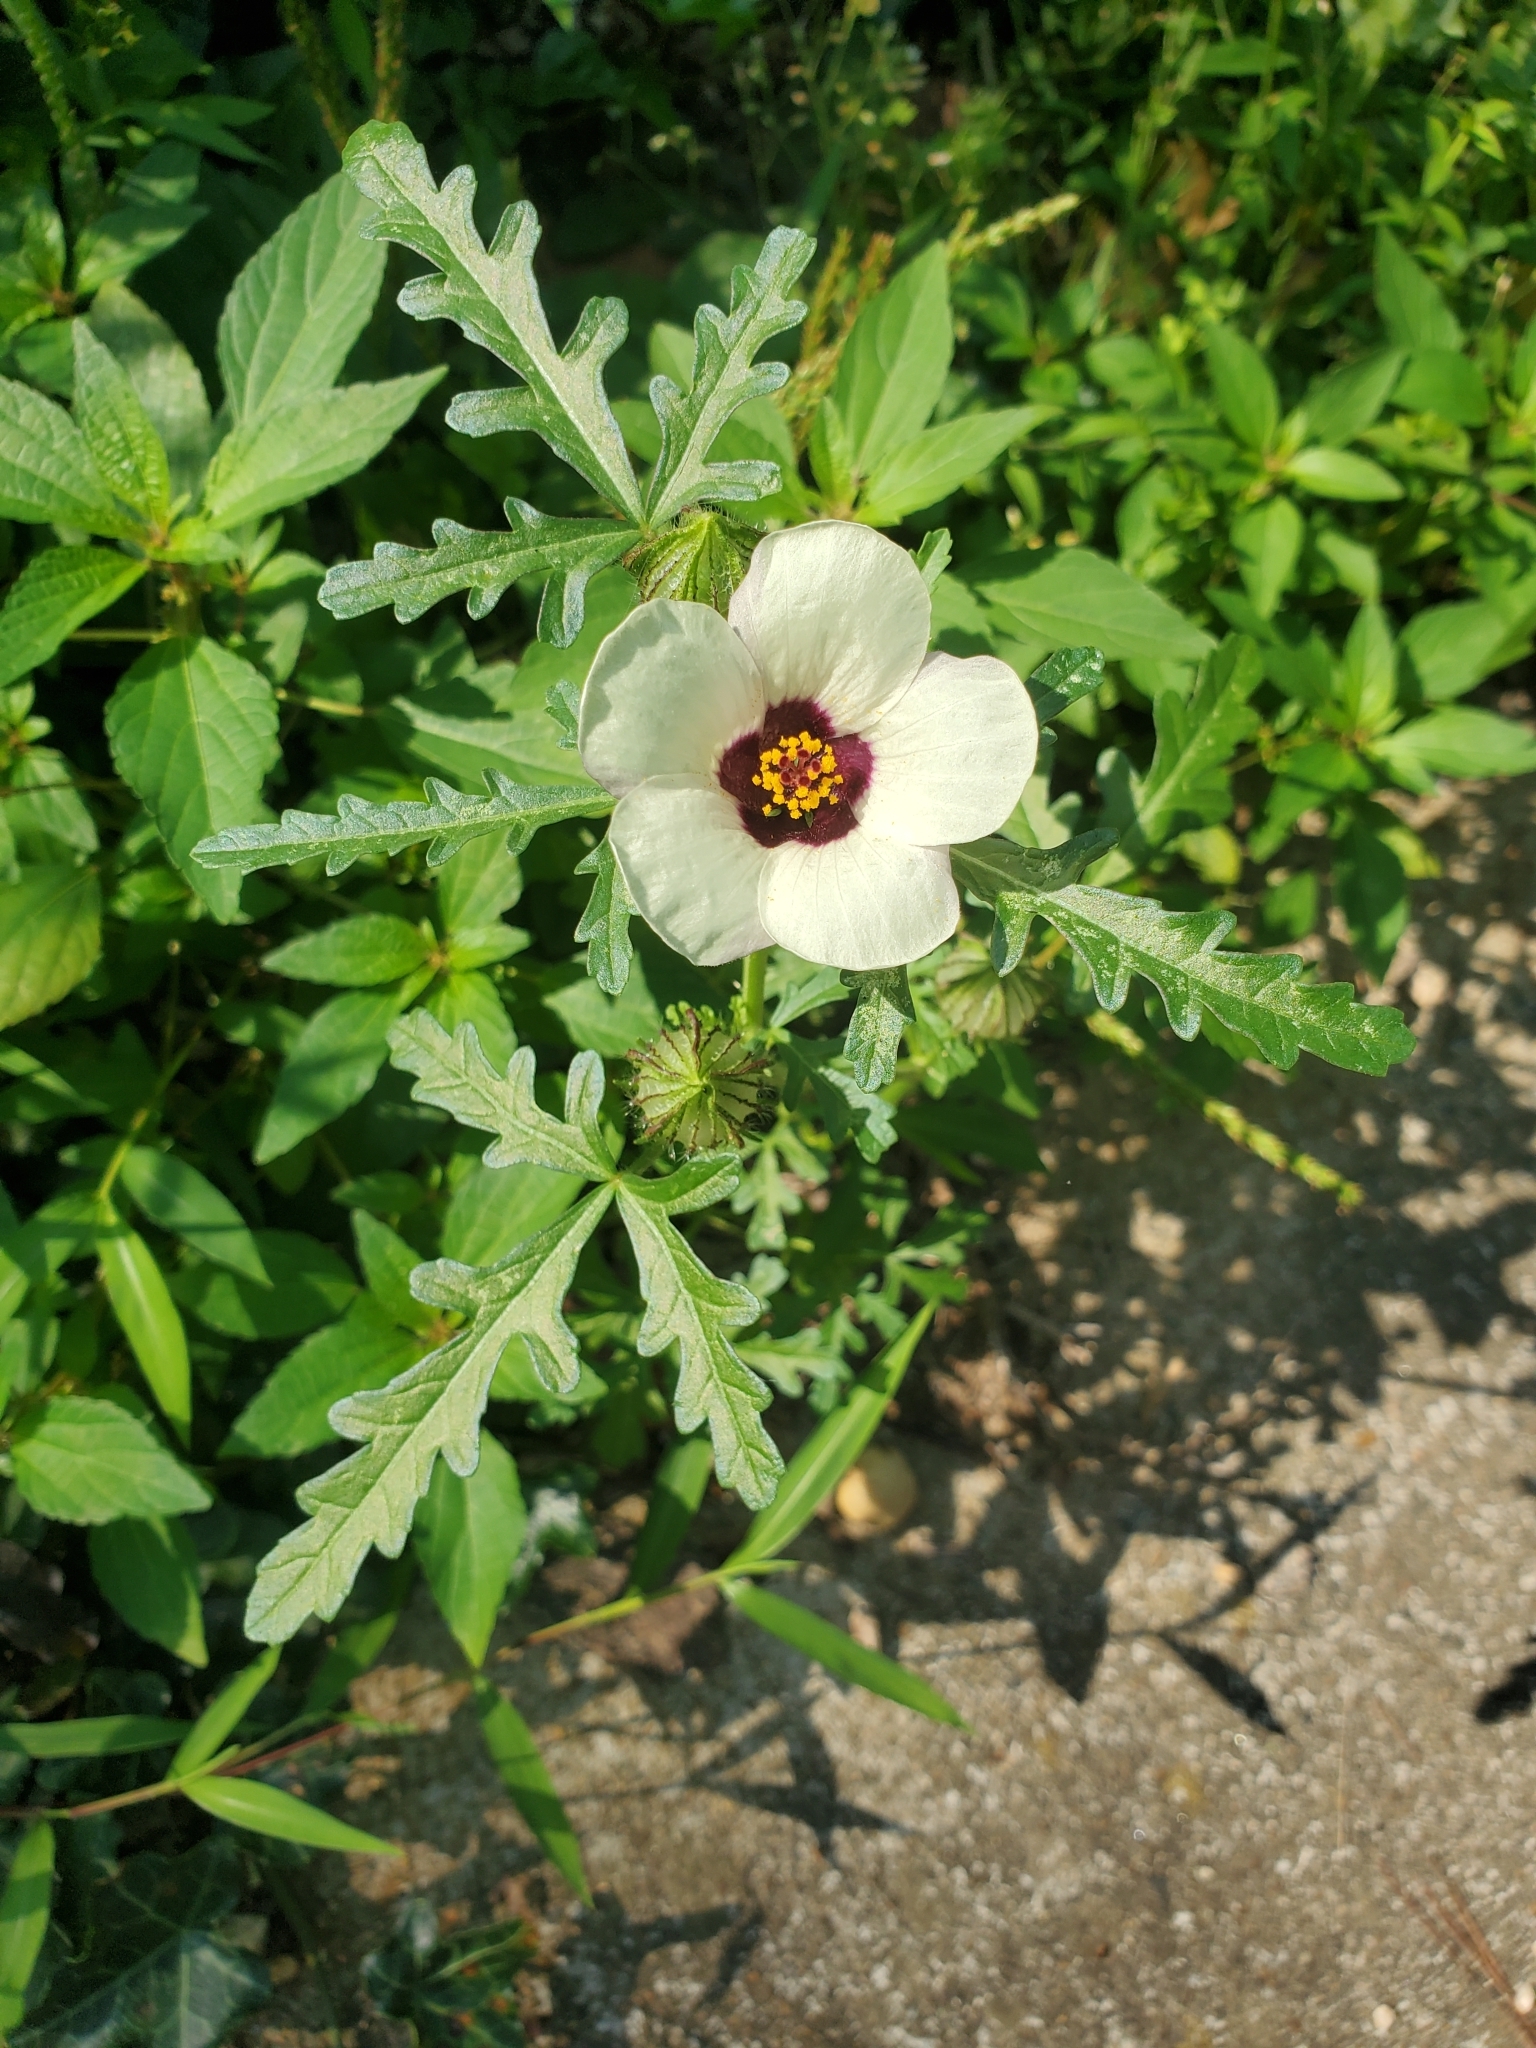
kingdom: Plantae
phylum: Tracheophyta
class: Magnoliopsida
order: Malvales
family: Malvaceae
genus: Hibiscus
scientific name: Hibiscus trionum
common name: Bladder ketmia
